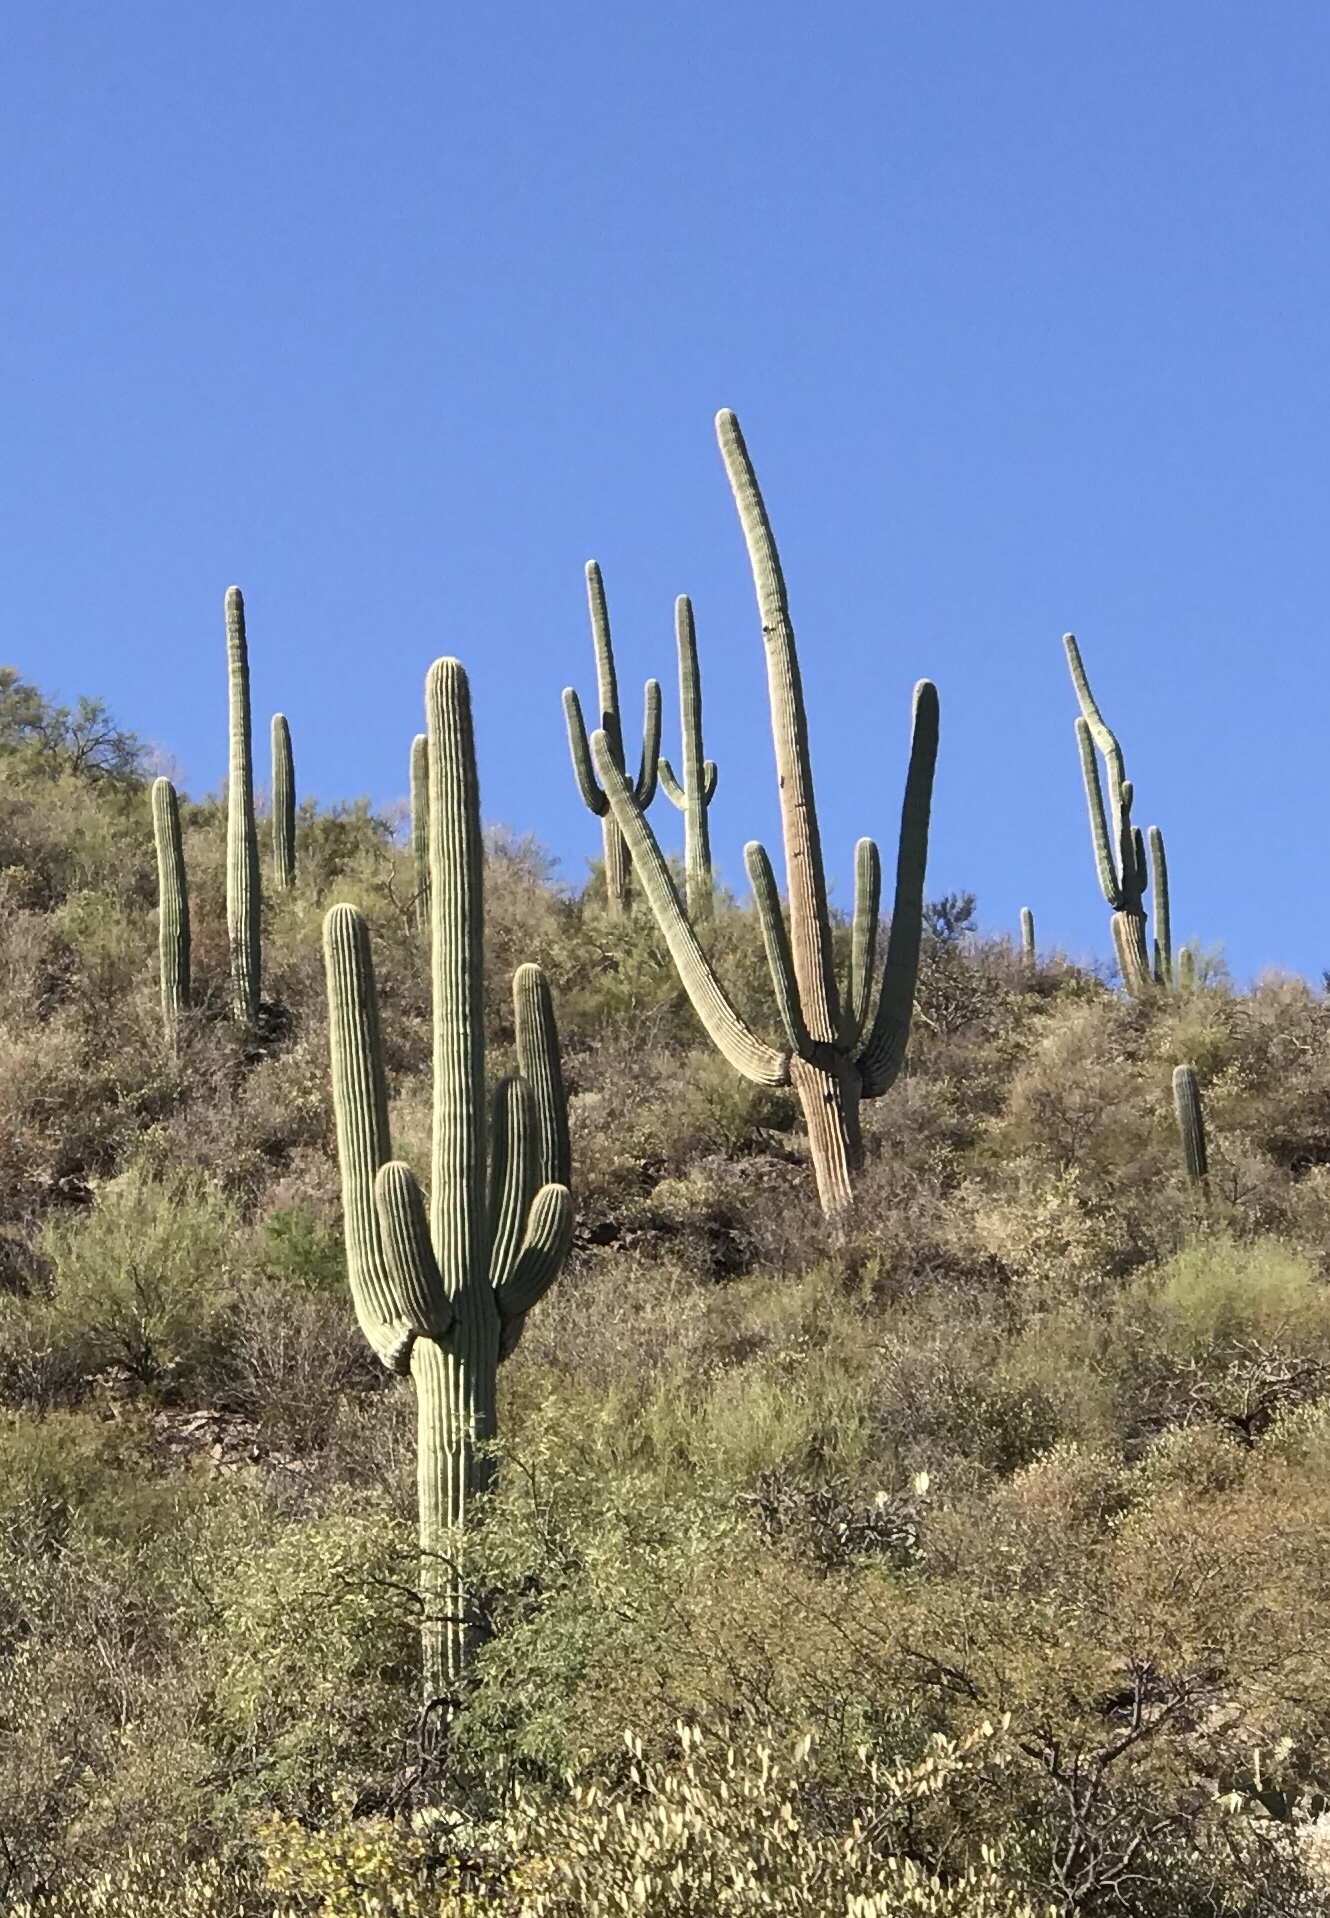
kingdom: Plantae
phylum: Tracheophyta
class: Magnoliopsida
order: Caryophyllales
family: Cactaceae
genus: Carnegiea
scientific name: Carnegiea gigantea
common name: Saguaro
